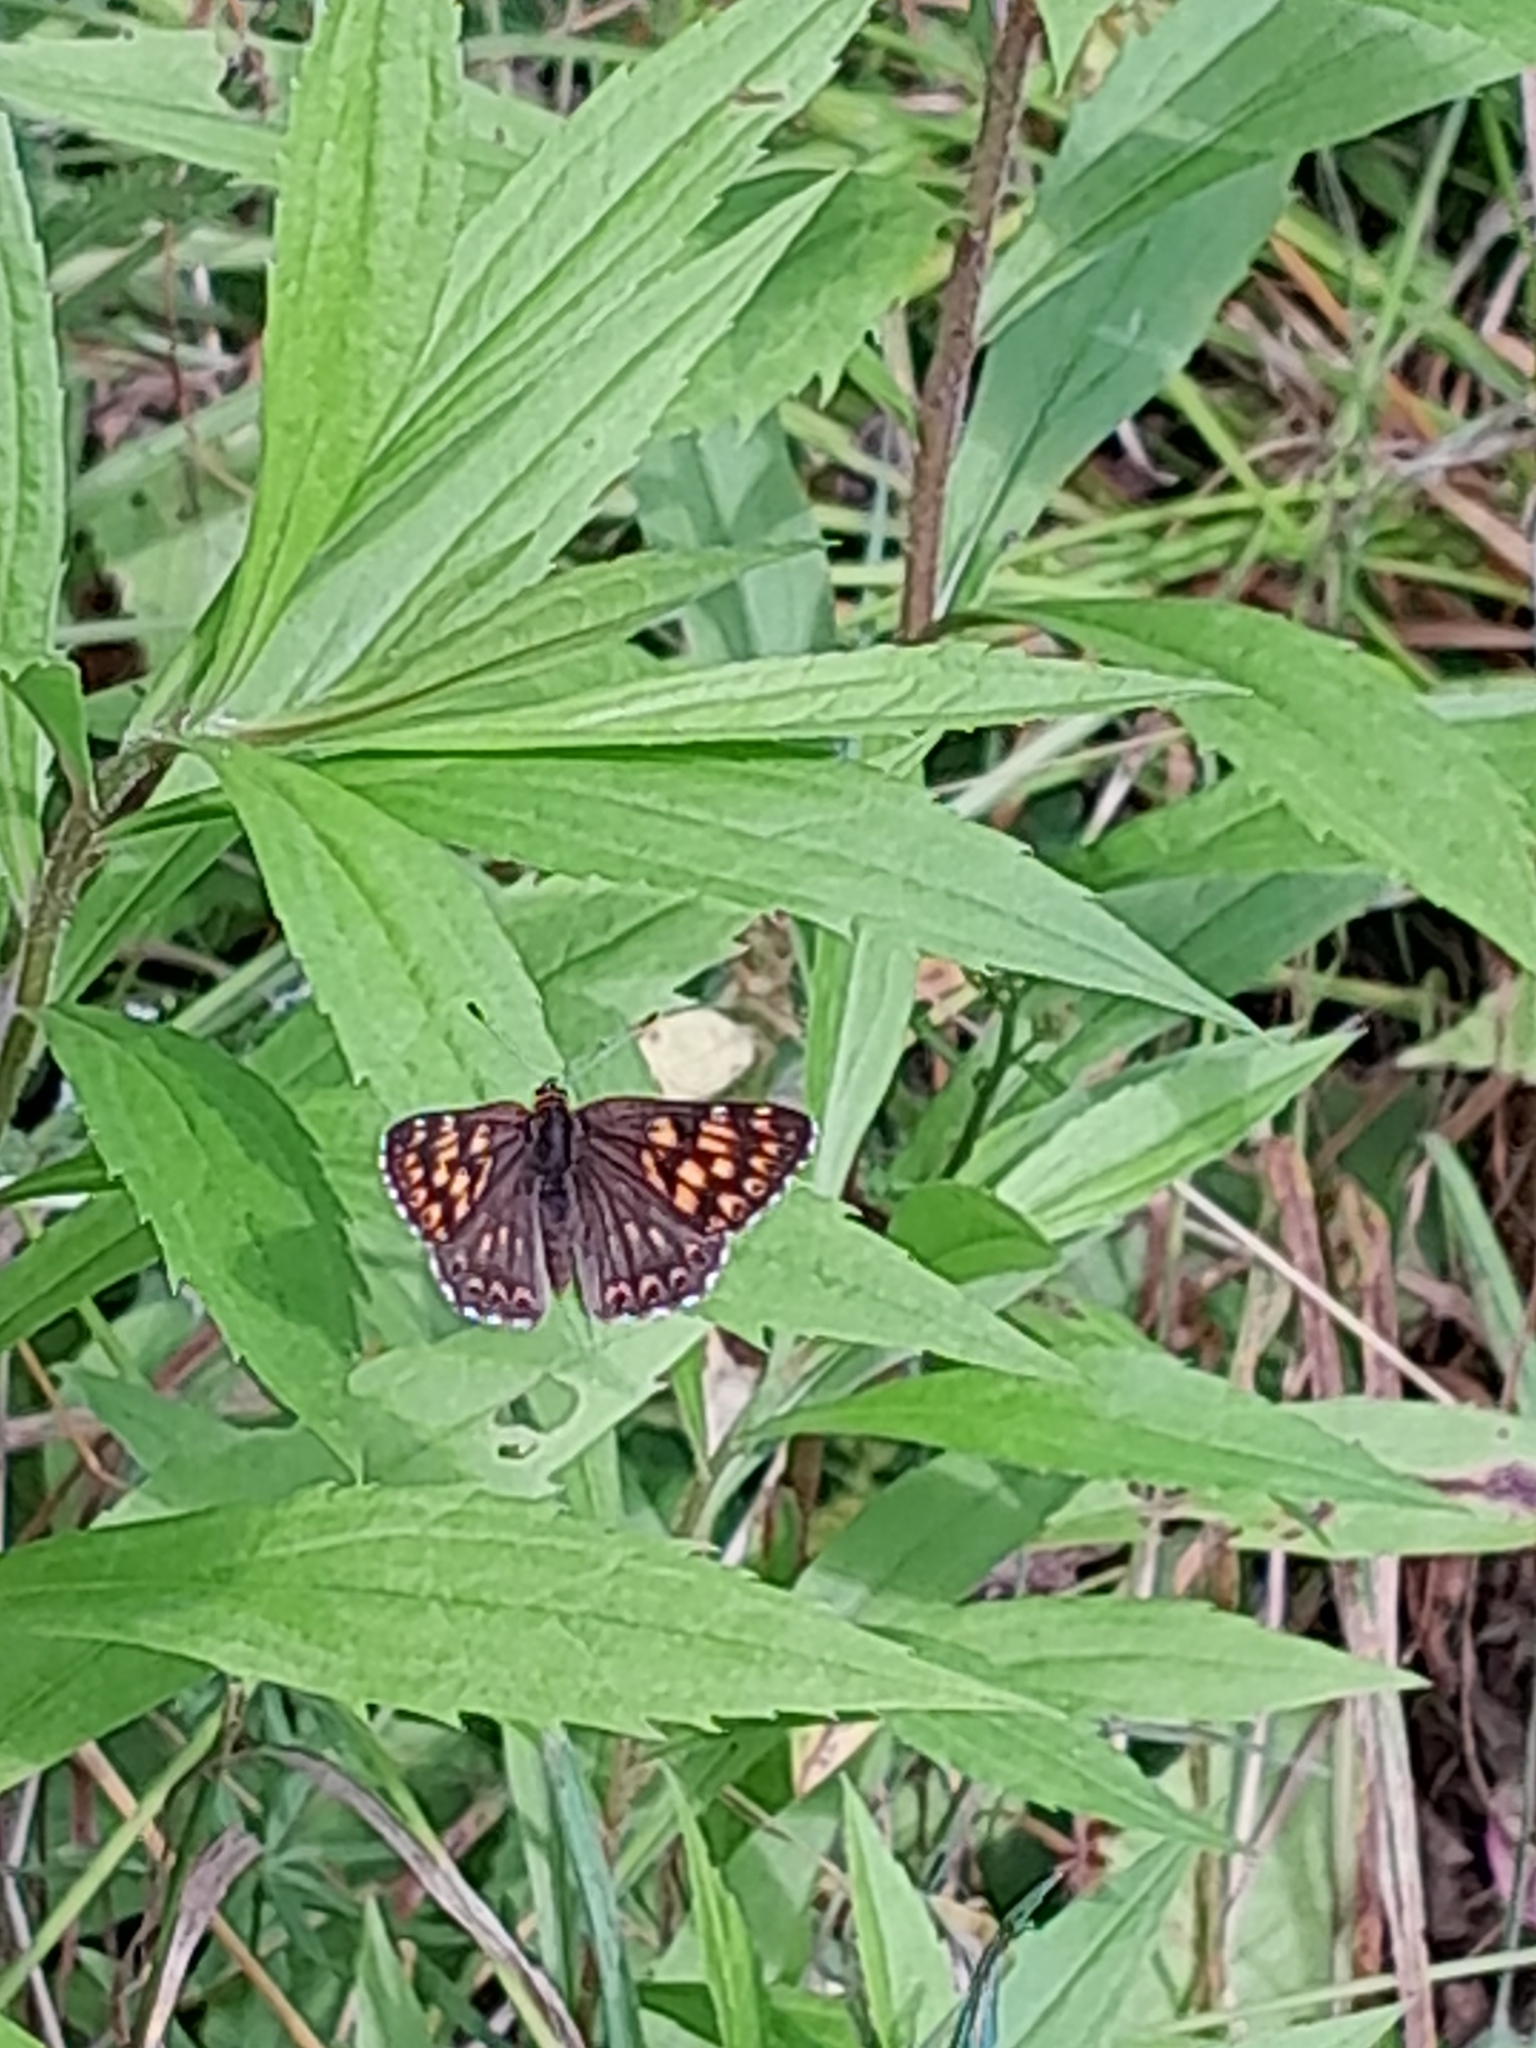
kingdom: Animalia
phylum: Arthropoda
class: Insecta
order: Lepidoptera
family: Riodinidae
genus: Hamearis
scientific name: Hamearis lucina
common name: Duke of burgundy fritillary
